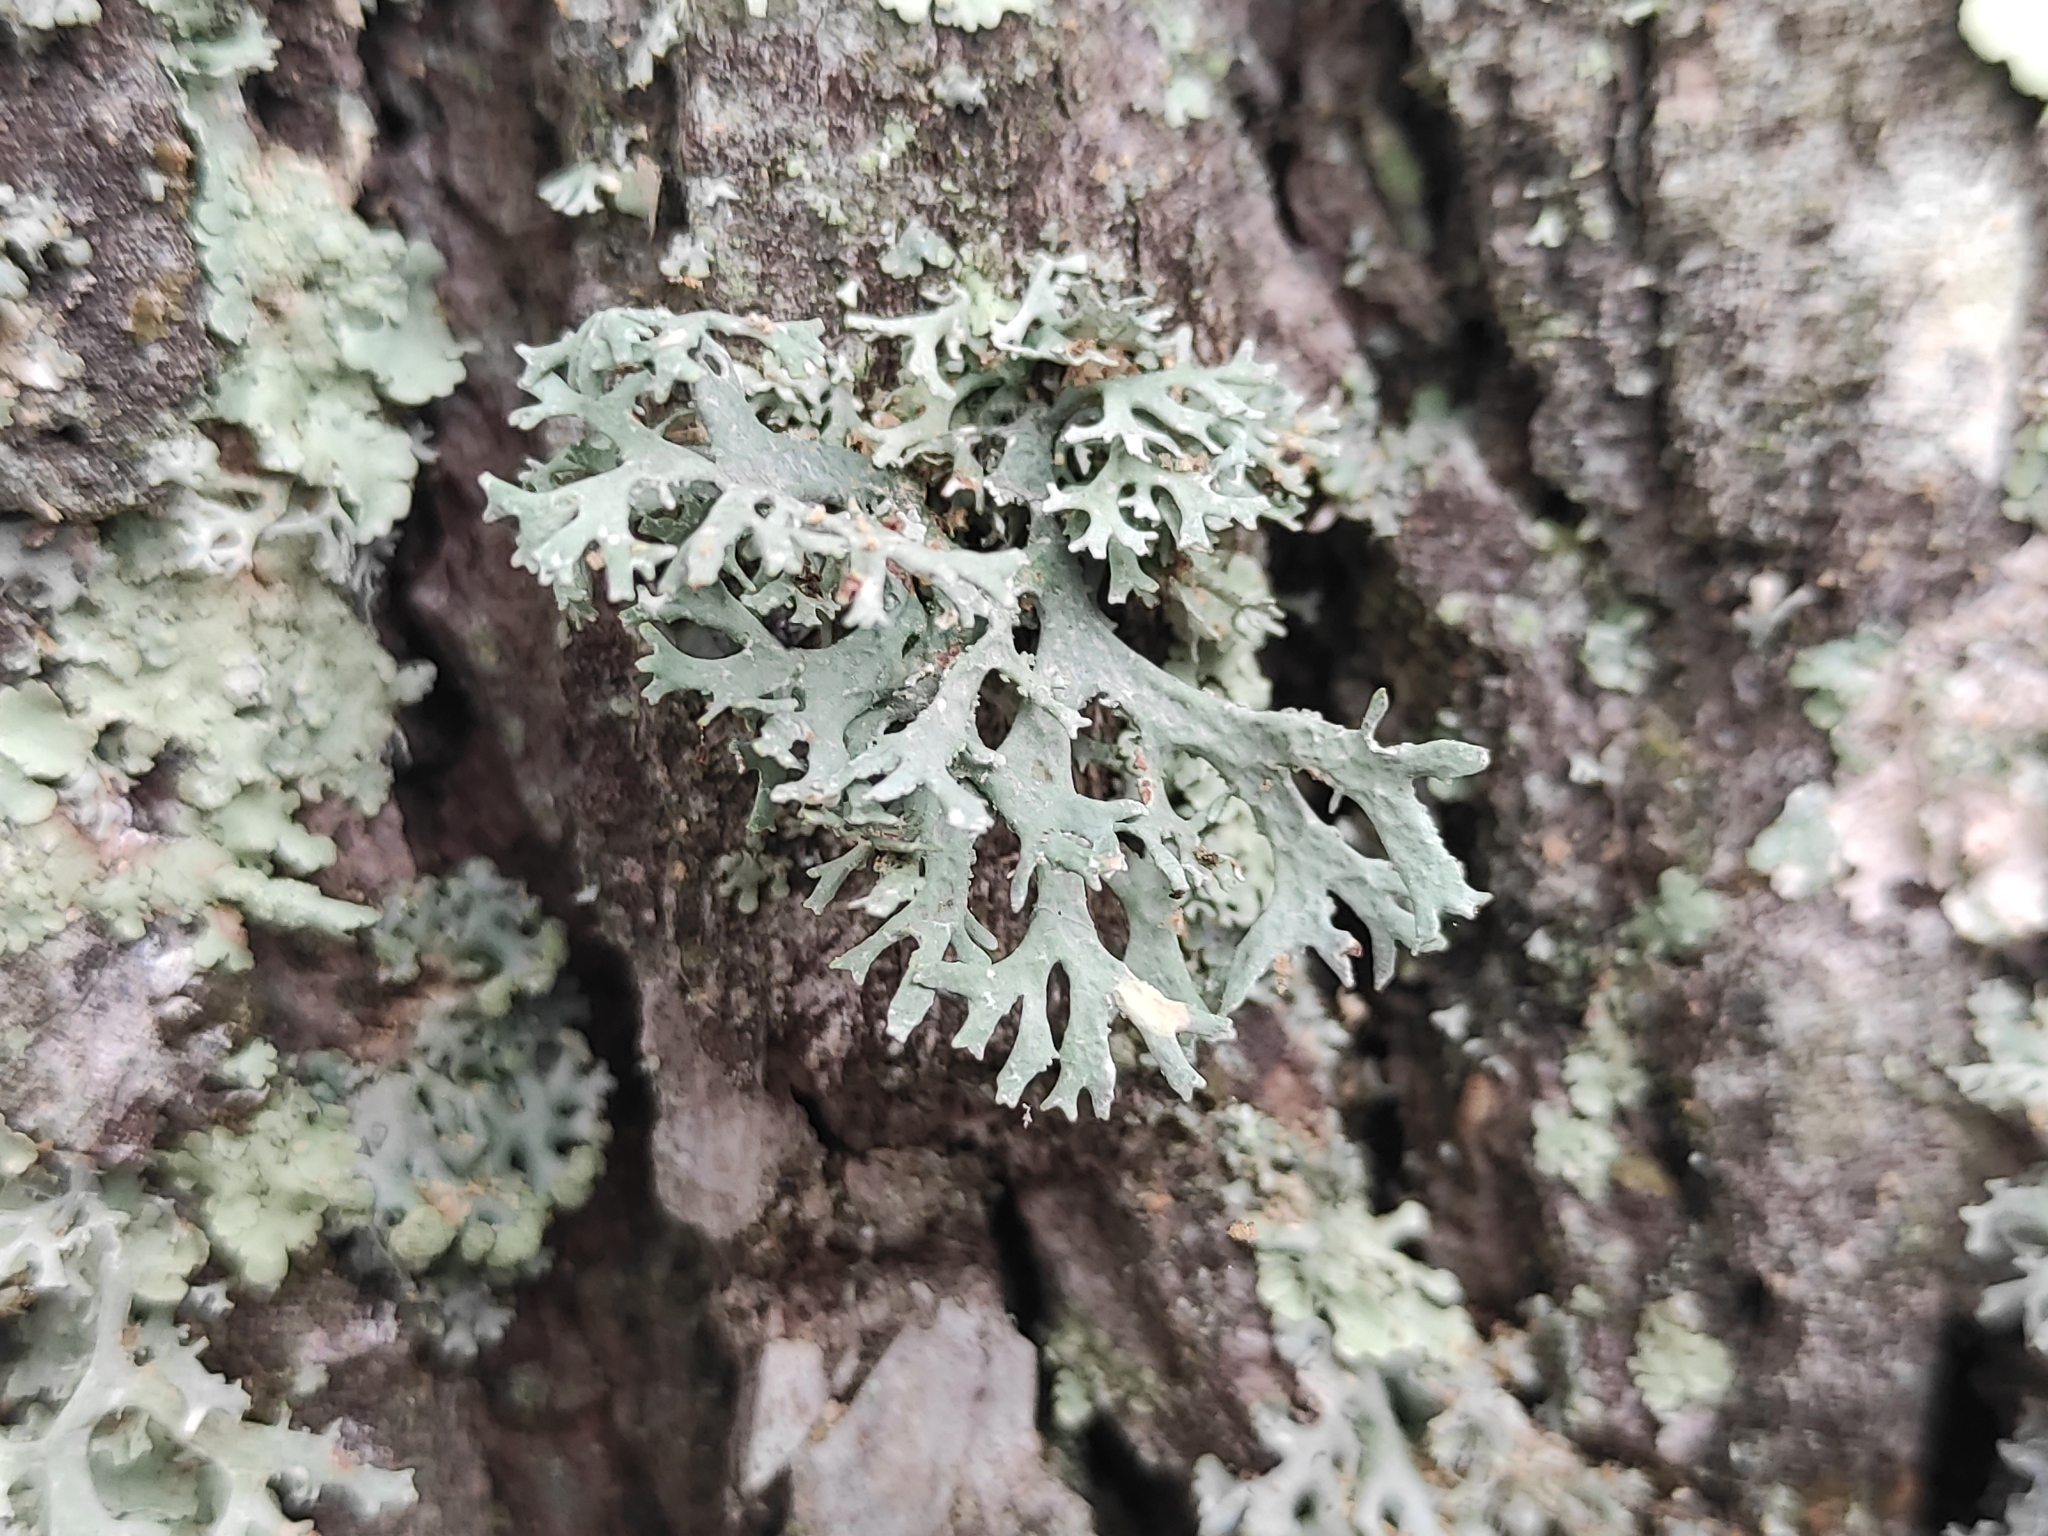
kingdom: Fungi
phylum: Ascomycota
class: Lecanoromycetes
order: Lecanorales
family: Parmeliaceae
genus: Evernia
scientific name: Evernia prunastri
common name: Oak moss
